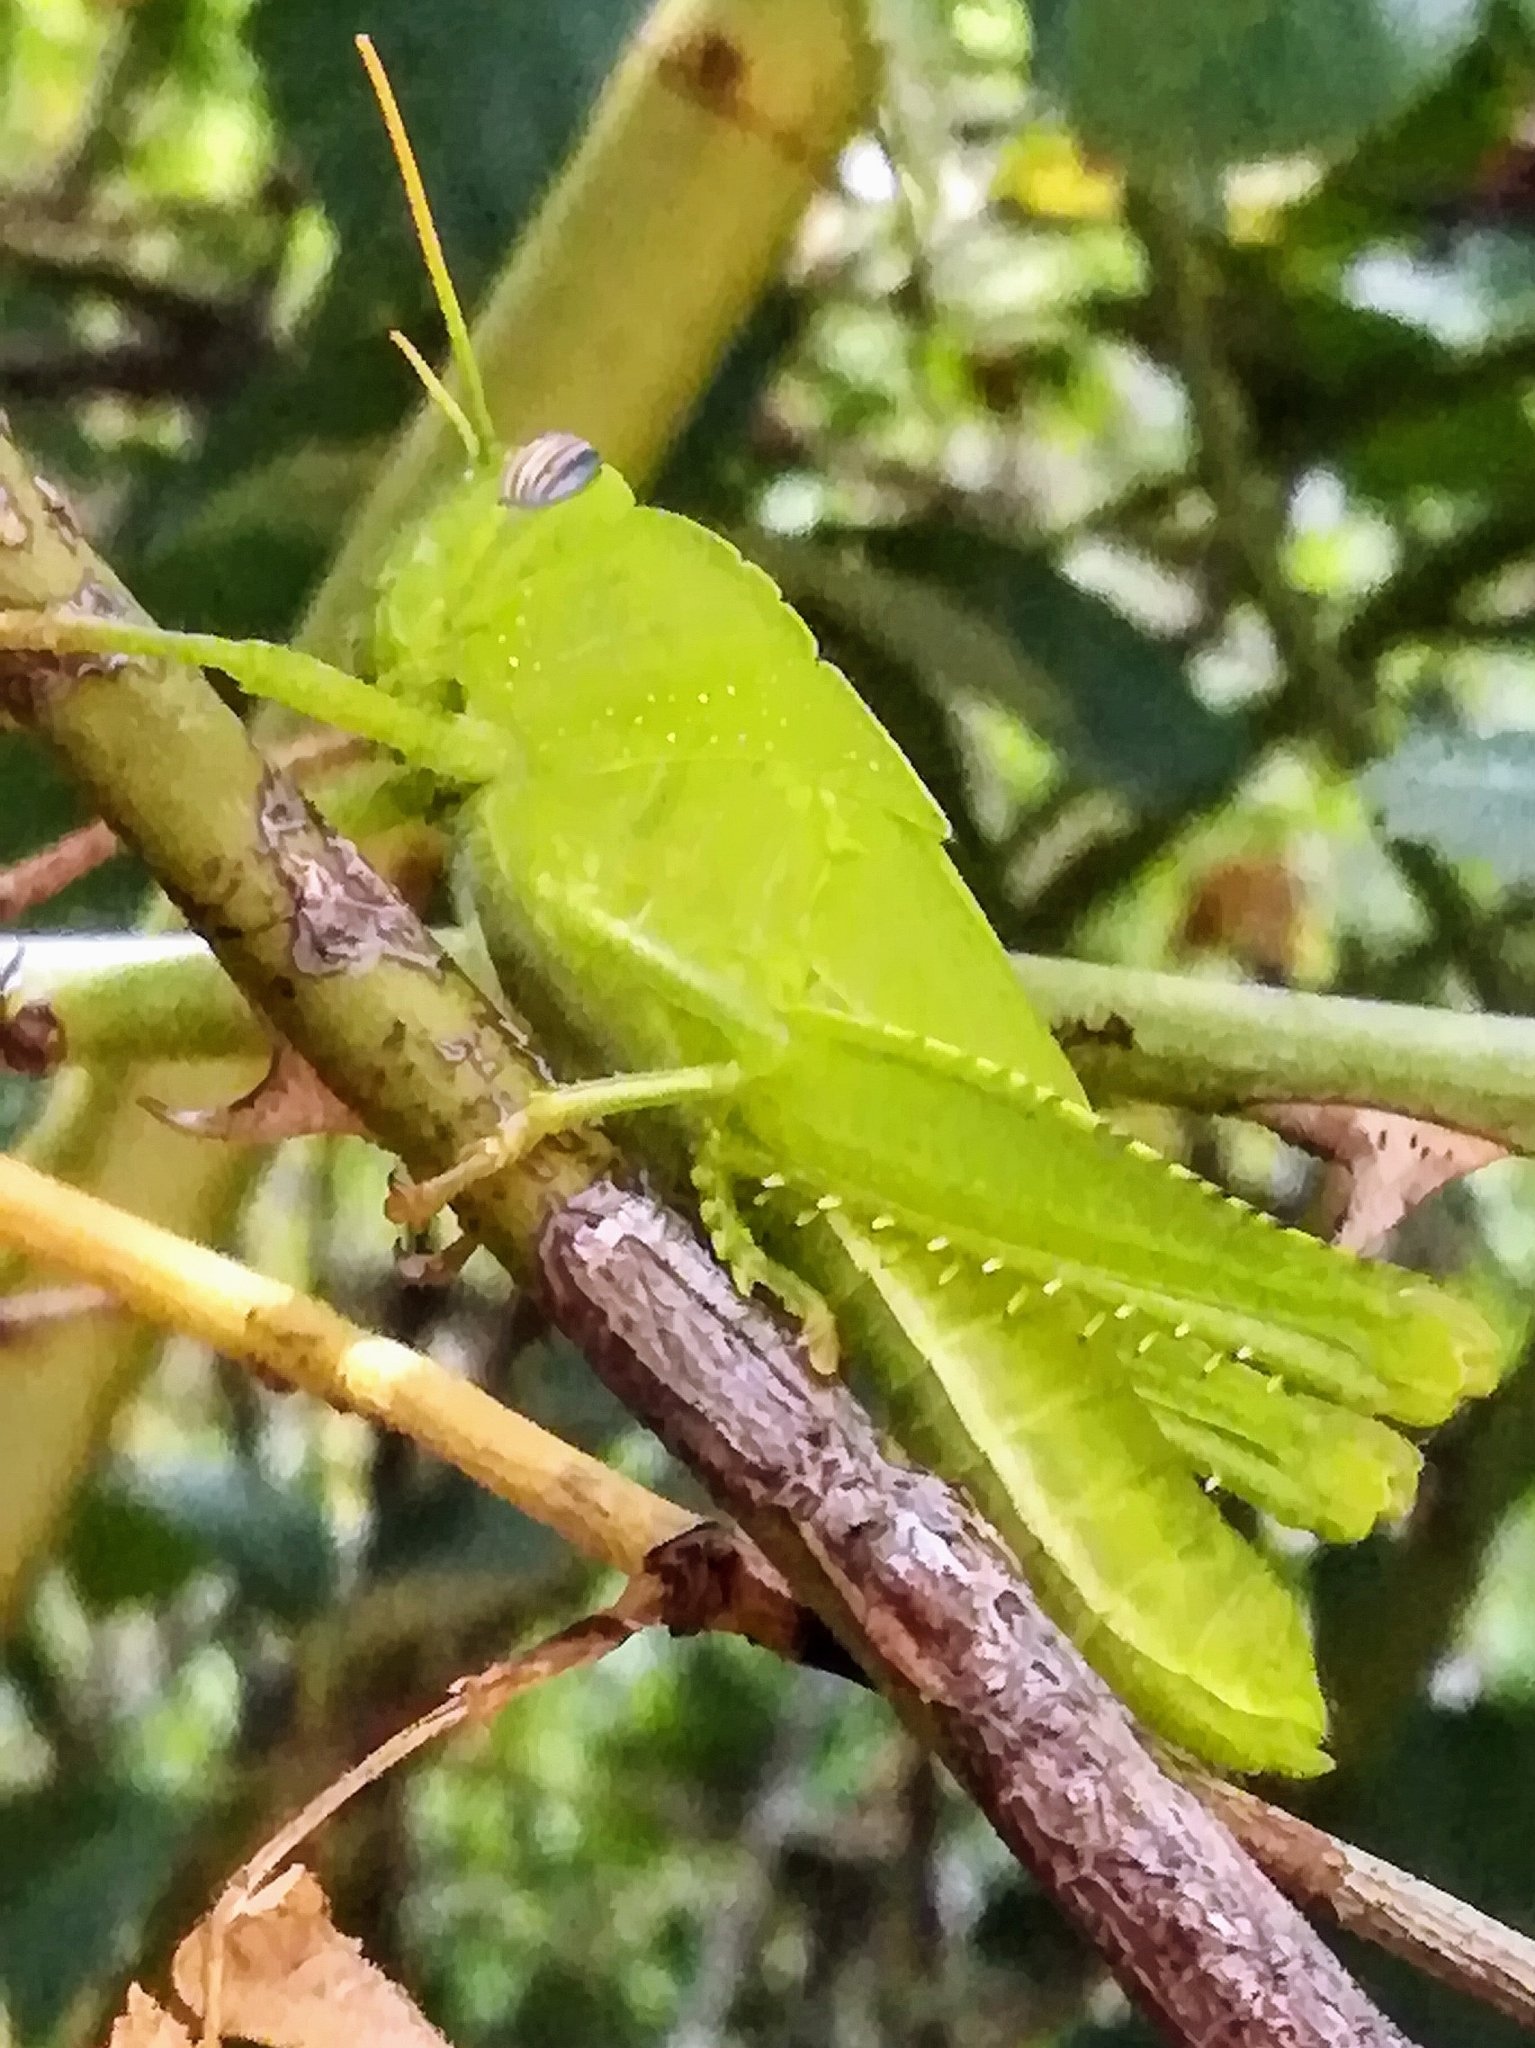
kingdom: Animalia
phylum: Arthropoda
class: Insecta
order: Orthoptera
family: Acrididae
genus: Anacridium
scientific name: Anacridium aegyptium
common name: Egyptian grasshopper
